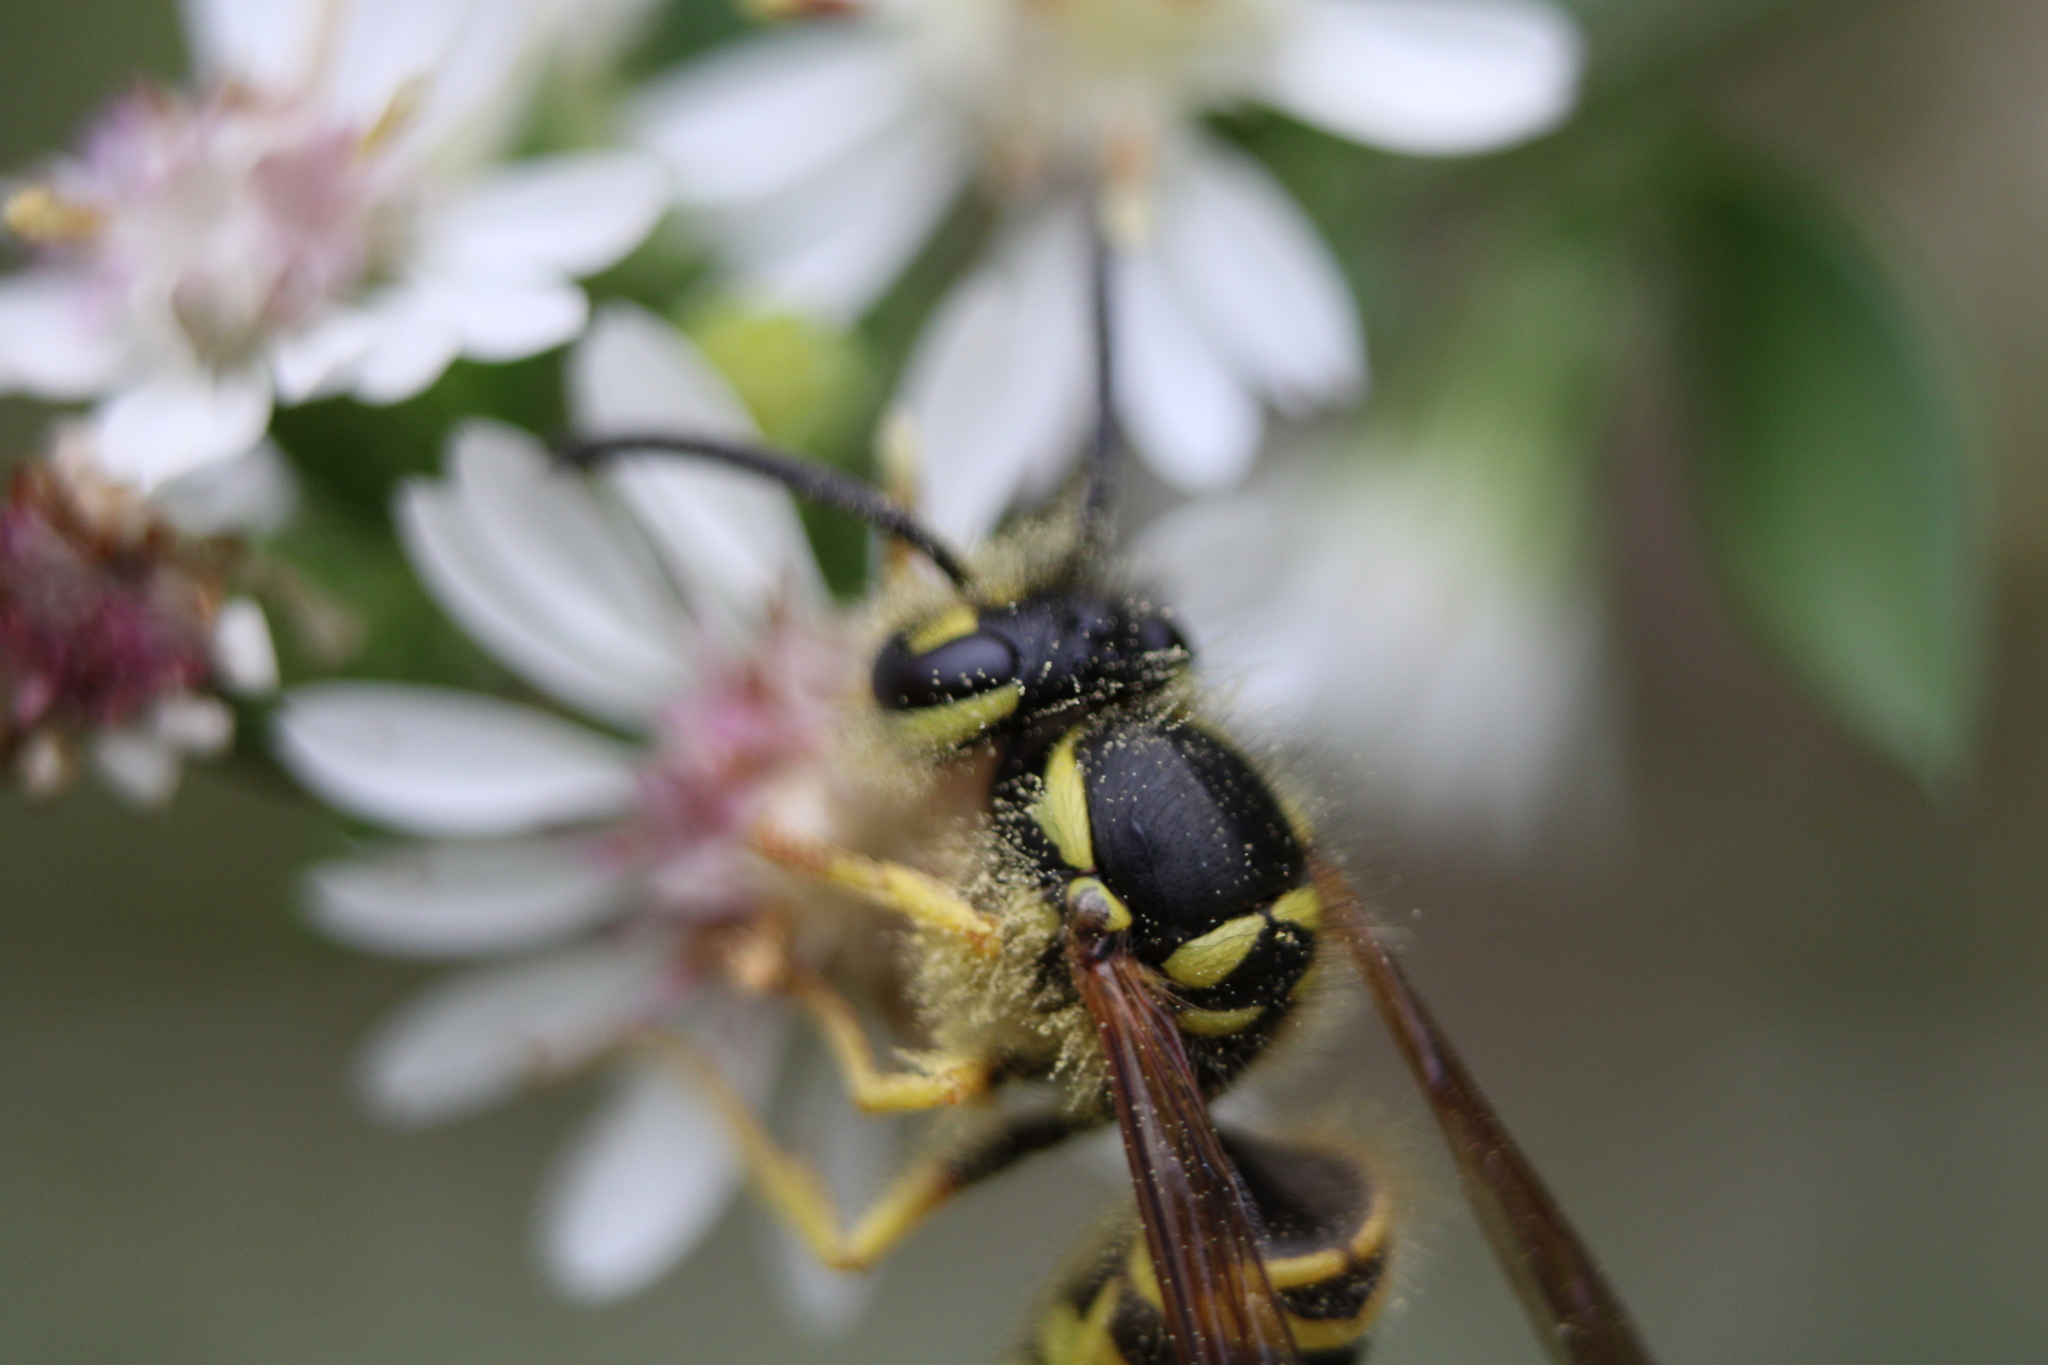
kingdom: Animalia
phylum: Arthropoda
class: Insecta
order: Hymenoptera
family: Vespidae
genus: Vespula
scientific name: Vespula maculifrons
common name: Eastern yellowjacket
